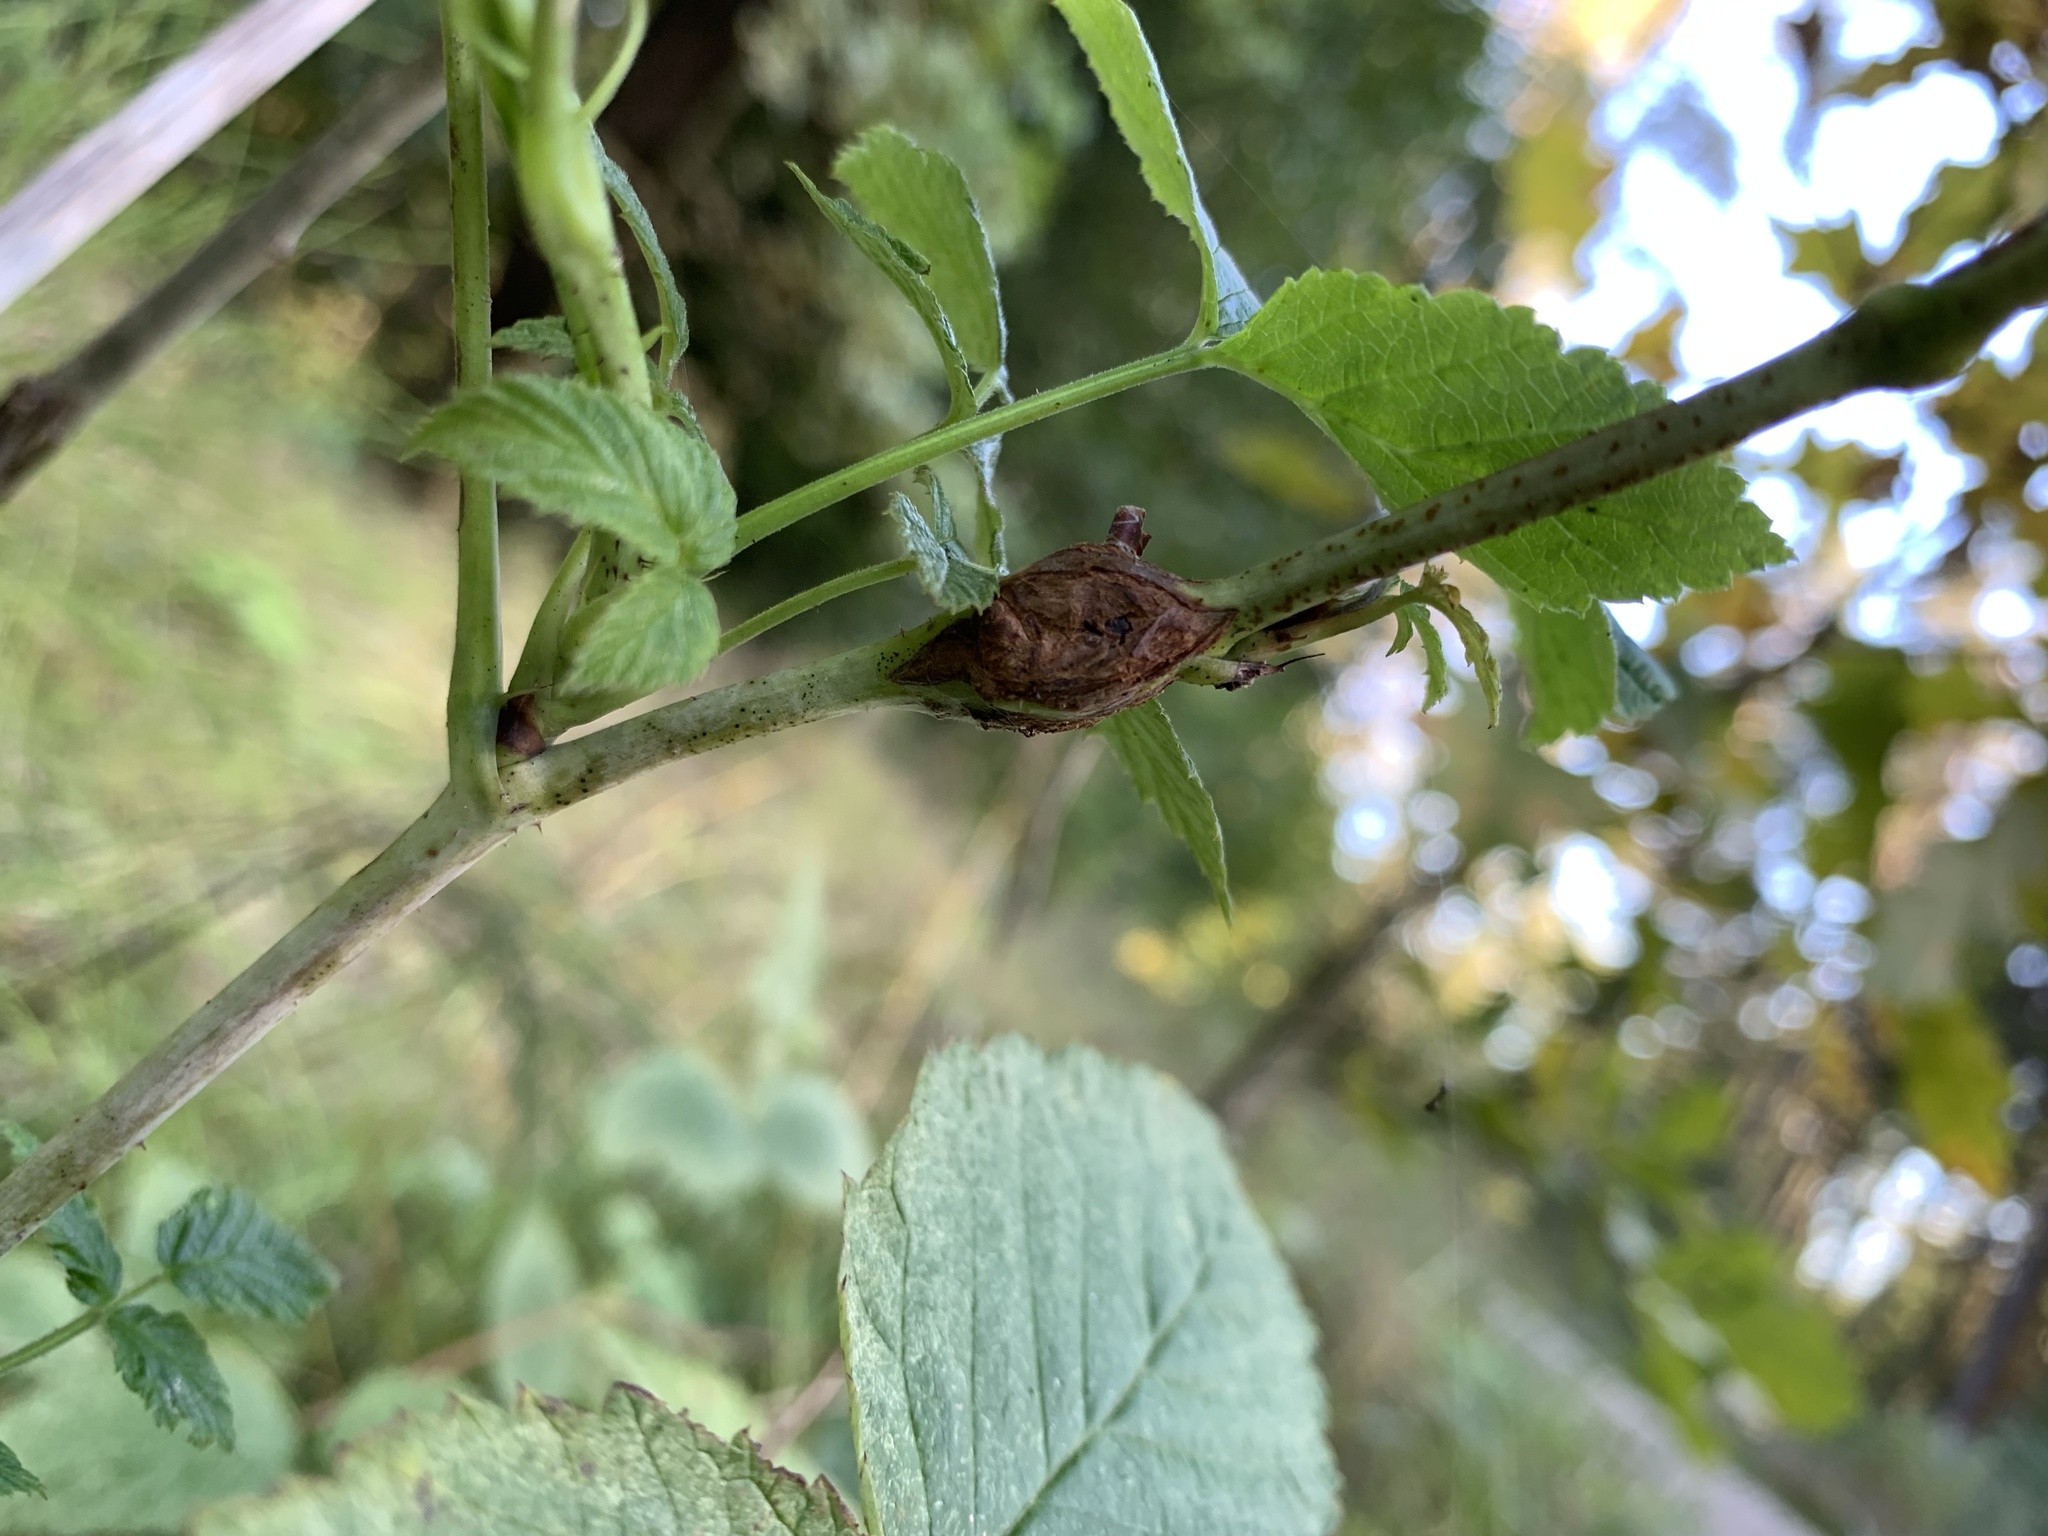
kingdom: Animalia
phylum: Arthropoda
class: Insecta
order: Diptera
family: Cecidomyiidae
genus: Lasioptera
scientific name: Lasioptera rubi
